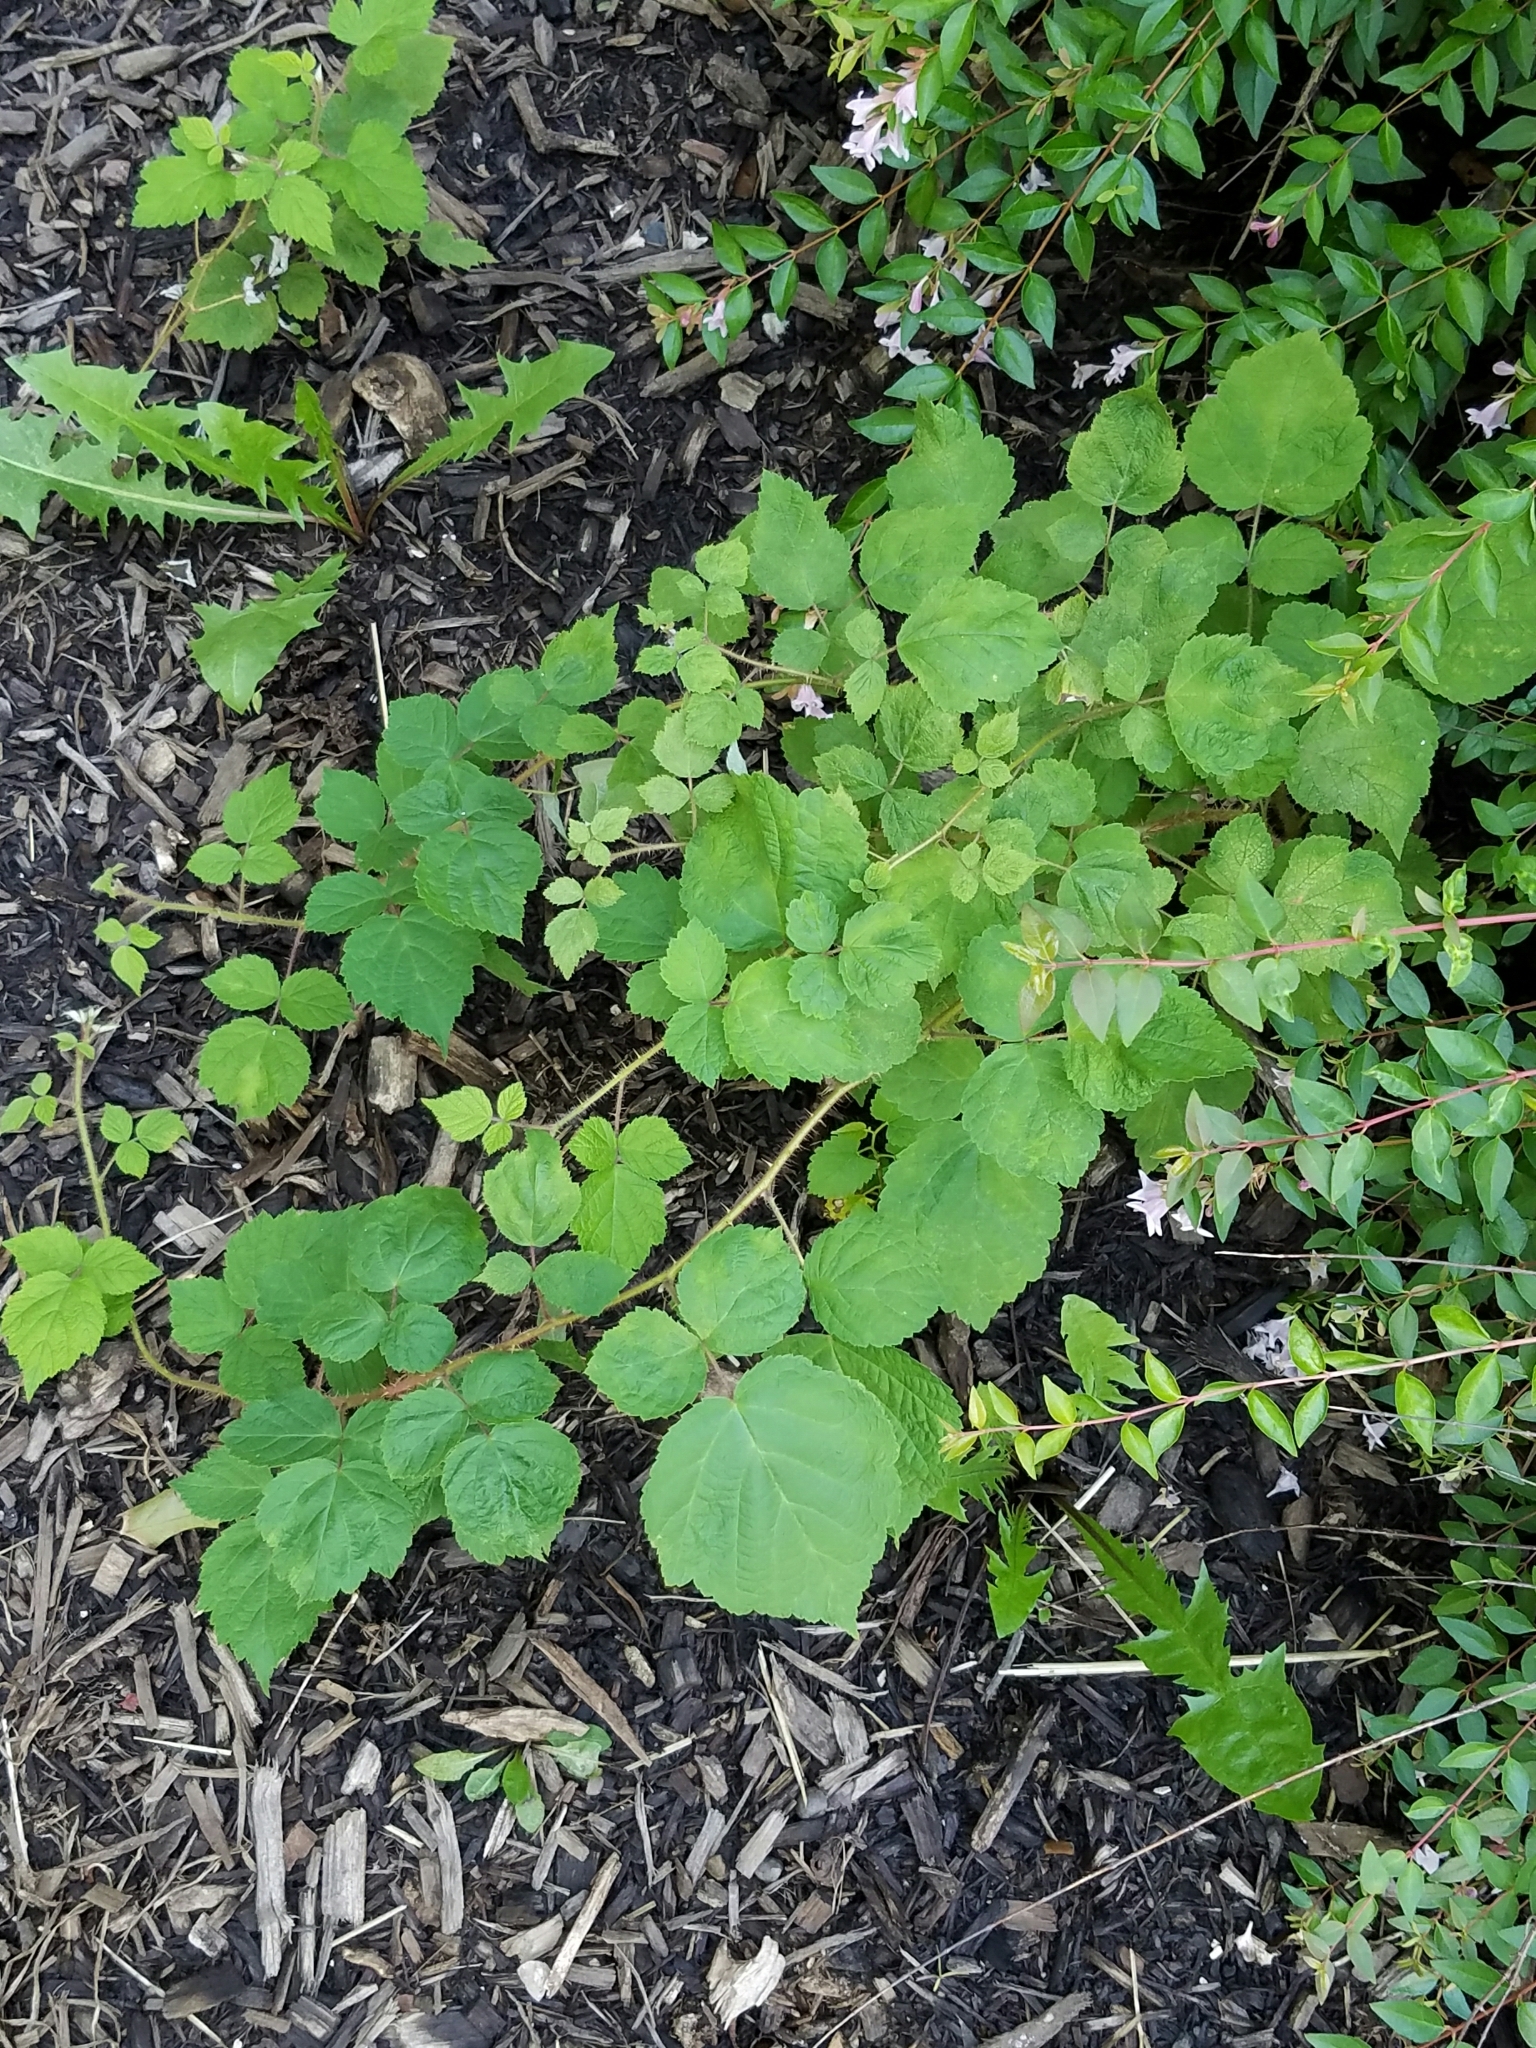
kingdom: Plantae
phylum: Tracheophyta
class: Magnoliopsida
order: Rosales
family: Rosaceae
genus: Rubus
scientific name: Rubus phoenicolasius
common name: Japanese wineberry
